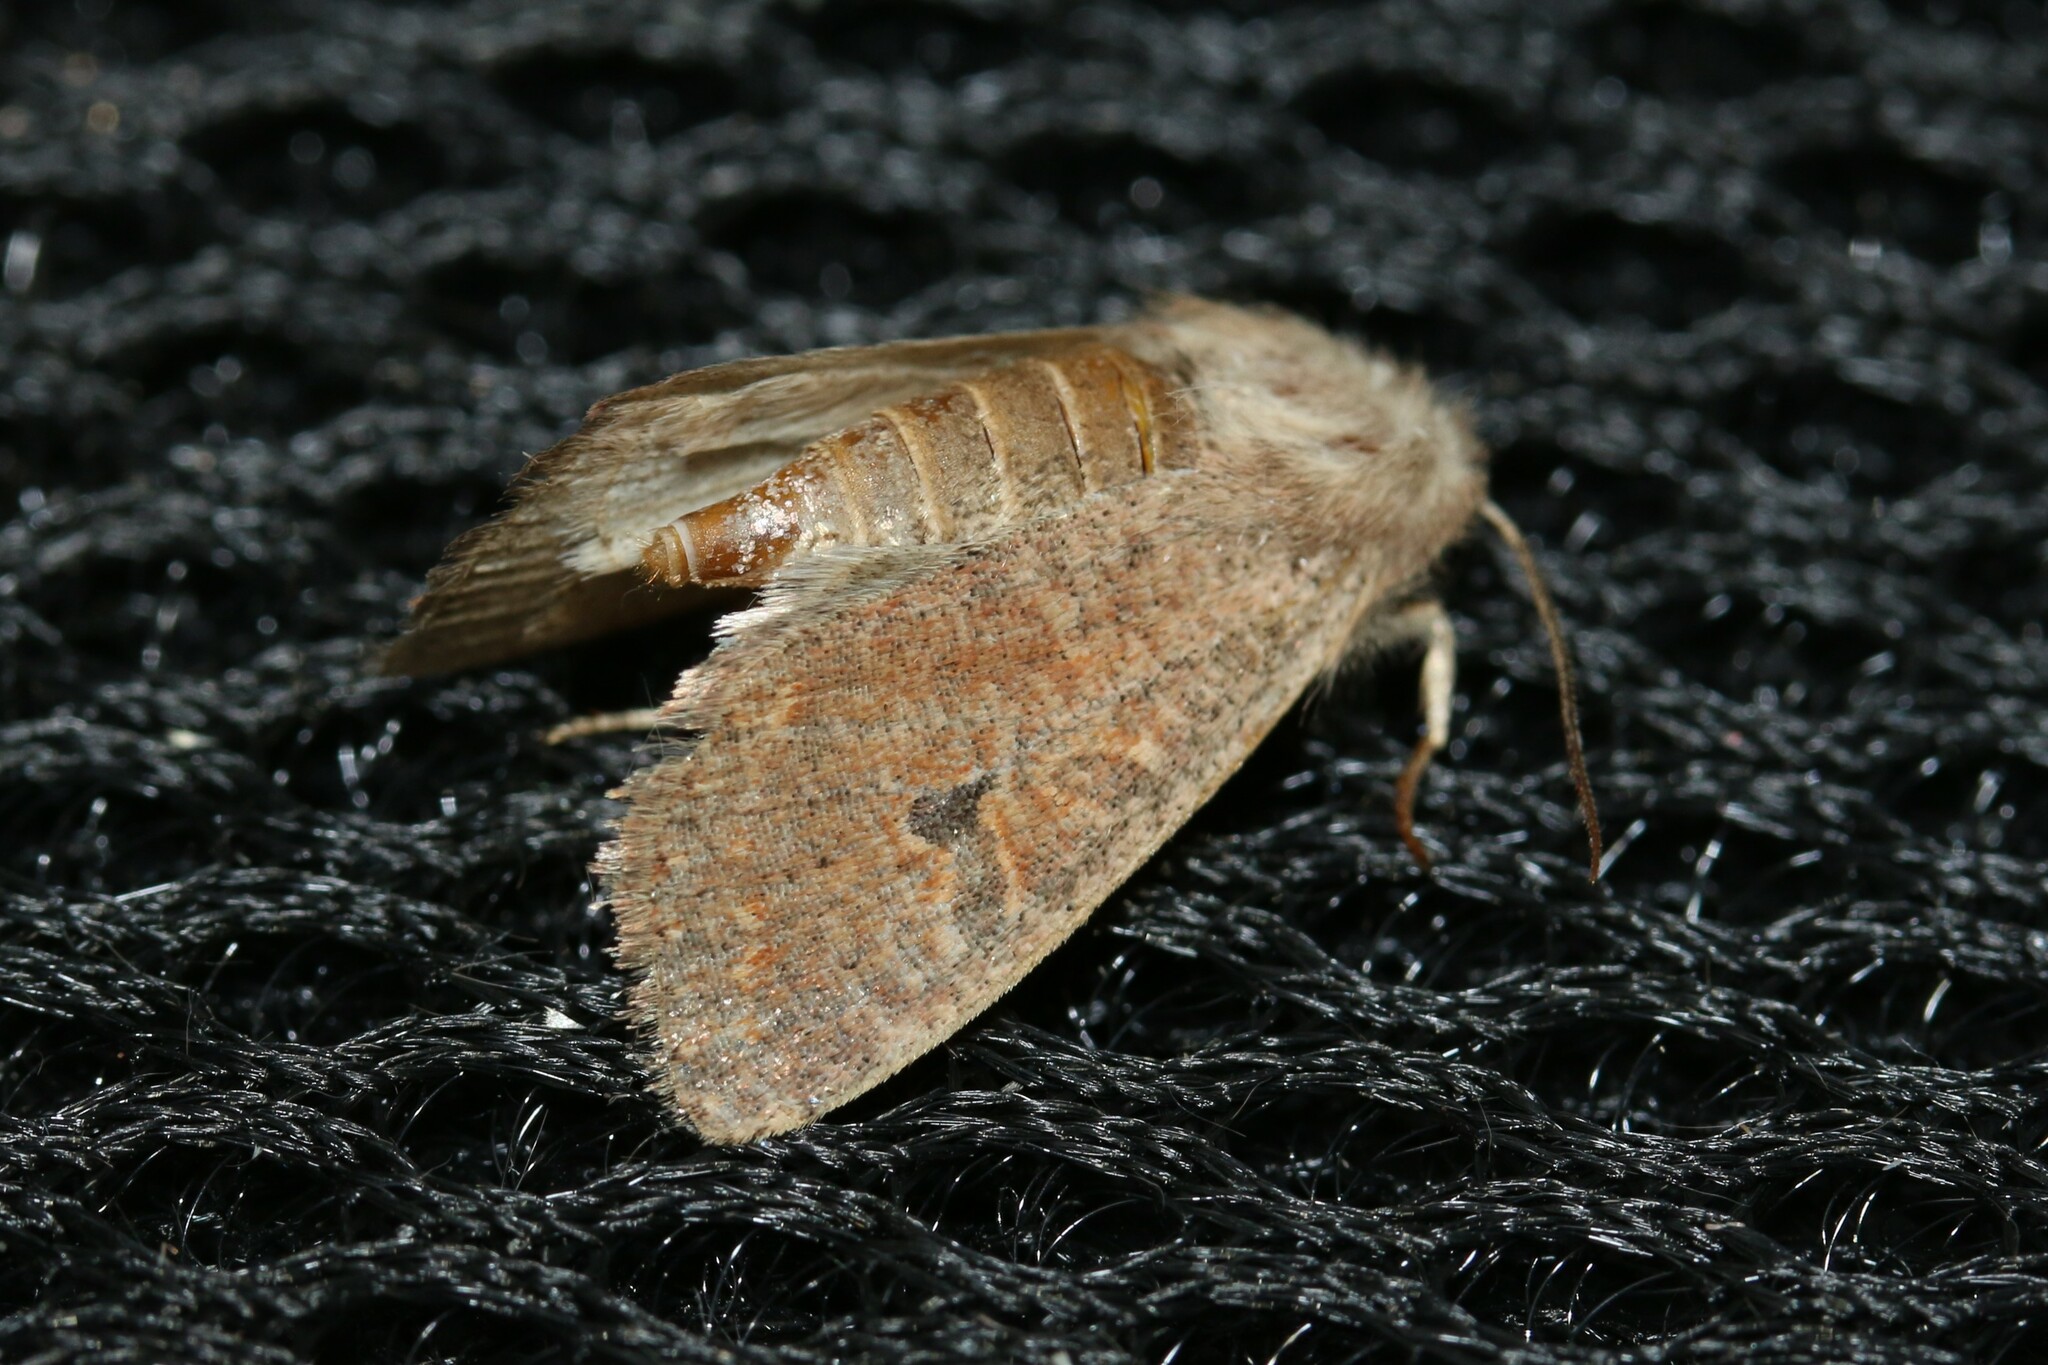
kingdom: Animalia
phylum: Arthropoda
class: Insecta
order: Lepidoptera
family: Noctuidae
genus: Orthosia
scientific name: Orthosia cruda
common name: Small quaker
